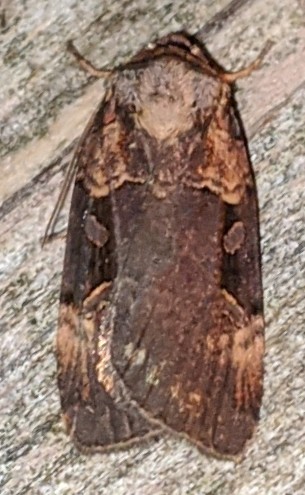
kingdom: Animalia
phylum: Arthropoda
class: Insecta
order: Lepidoptera
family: Noctuidae
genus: Pseudohermonassa
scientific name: Pseudohermonassa bicarnea
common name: Pink spotted dart
